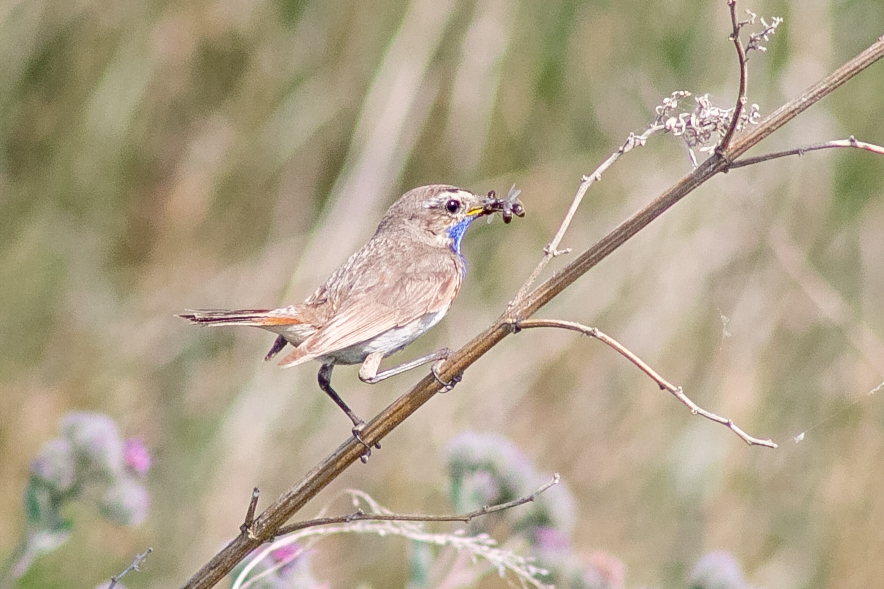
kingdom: Animalia
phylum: Chordata
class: Aves
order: Passeriformes
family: Muscicapidae
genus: Luscinia
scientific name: Luscinia svecica
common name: Bluethroat
